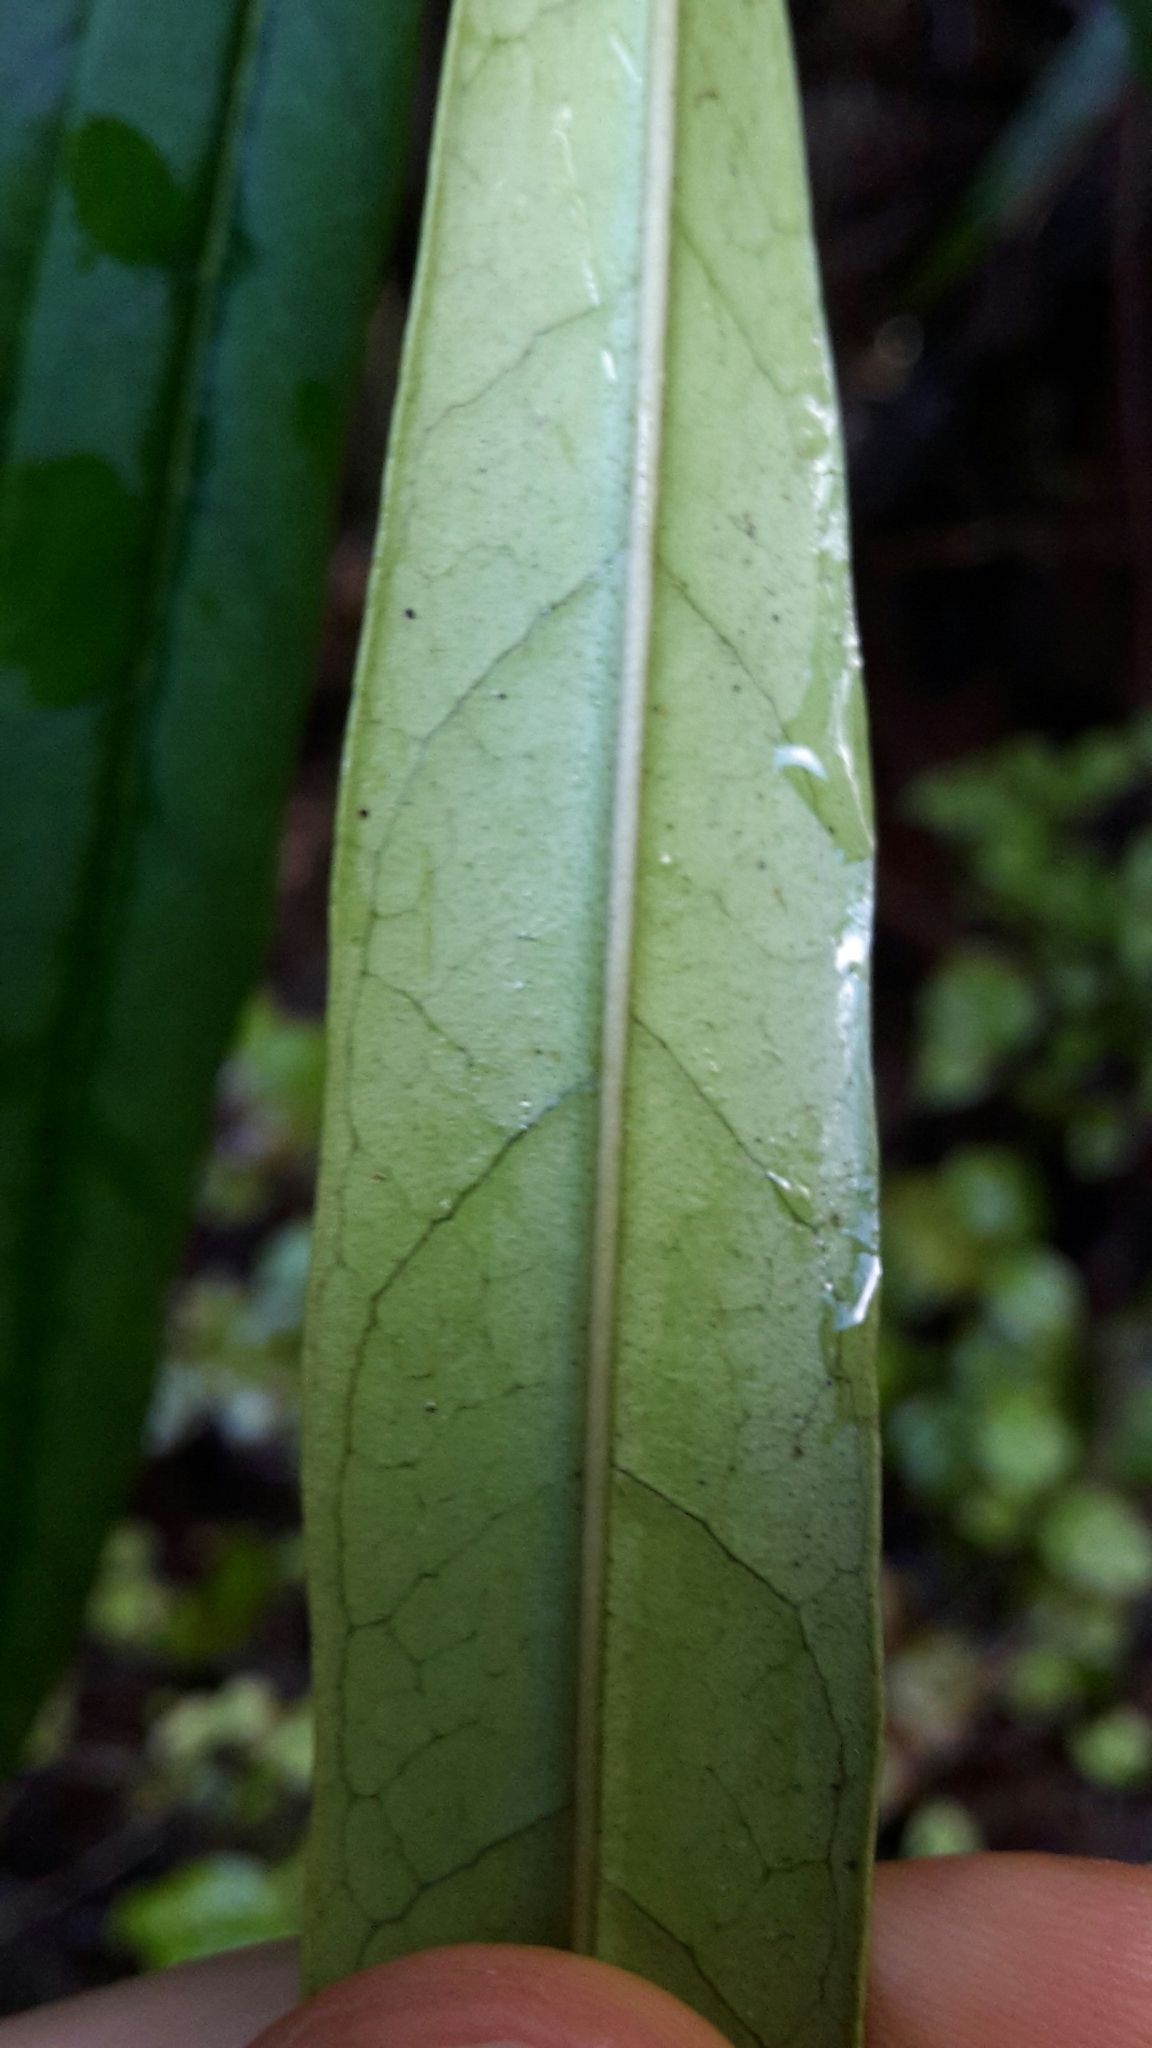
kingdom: Plantae
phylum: Tracheophyta
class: Magnoliopsida
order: Lamiales
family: Oleaceae
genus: Nestegis
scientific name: Nestegis cunninghamii
